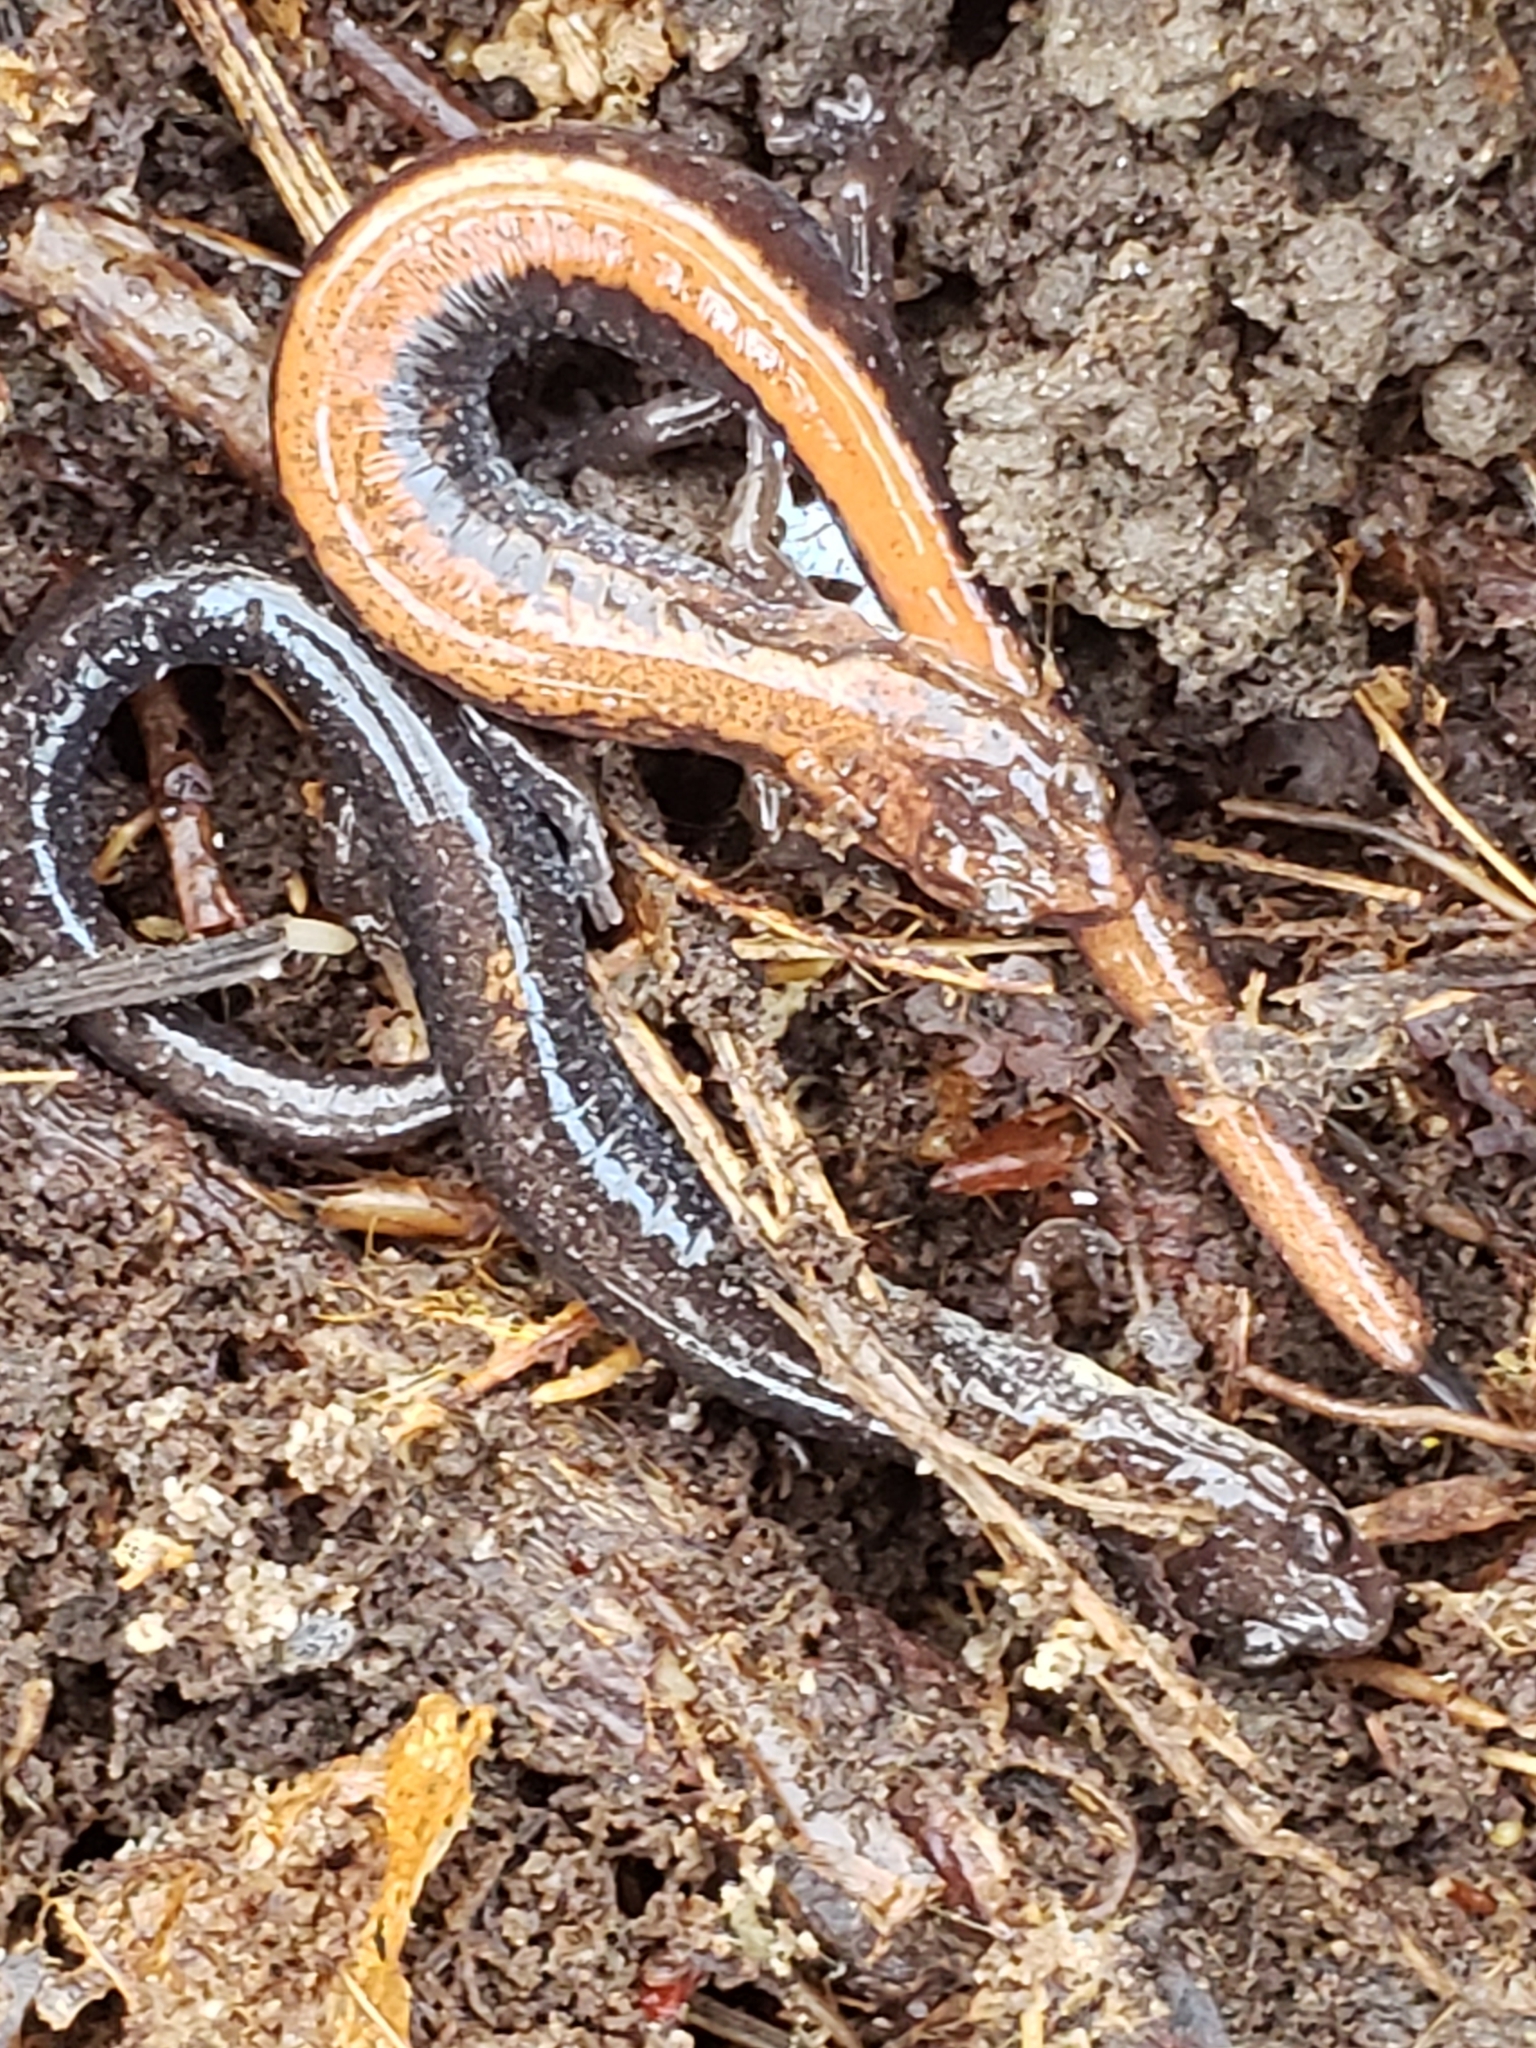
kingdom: Animalia
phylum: Chordata
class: Amphibia
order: Caudata
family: Plethodontidae
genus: Plethodon
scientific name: Plethodon cinereus
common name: Redback salamander
